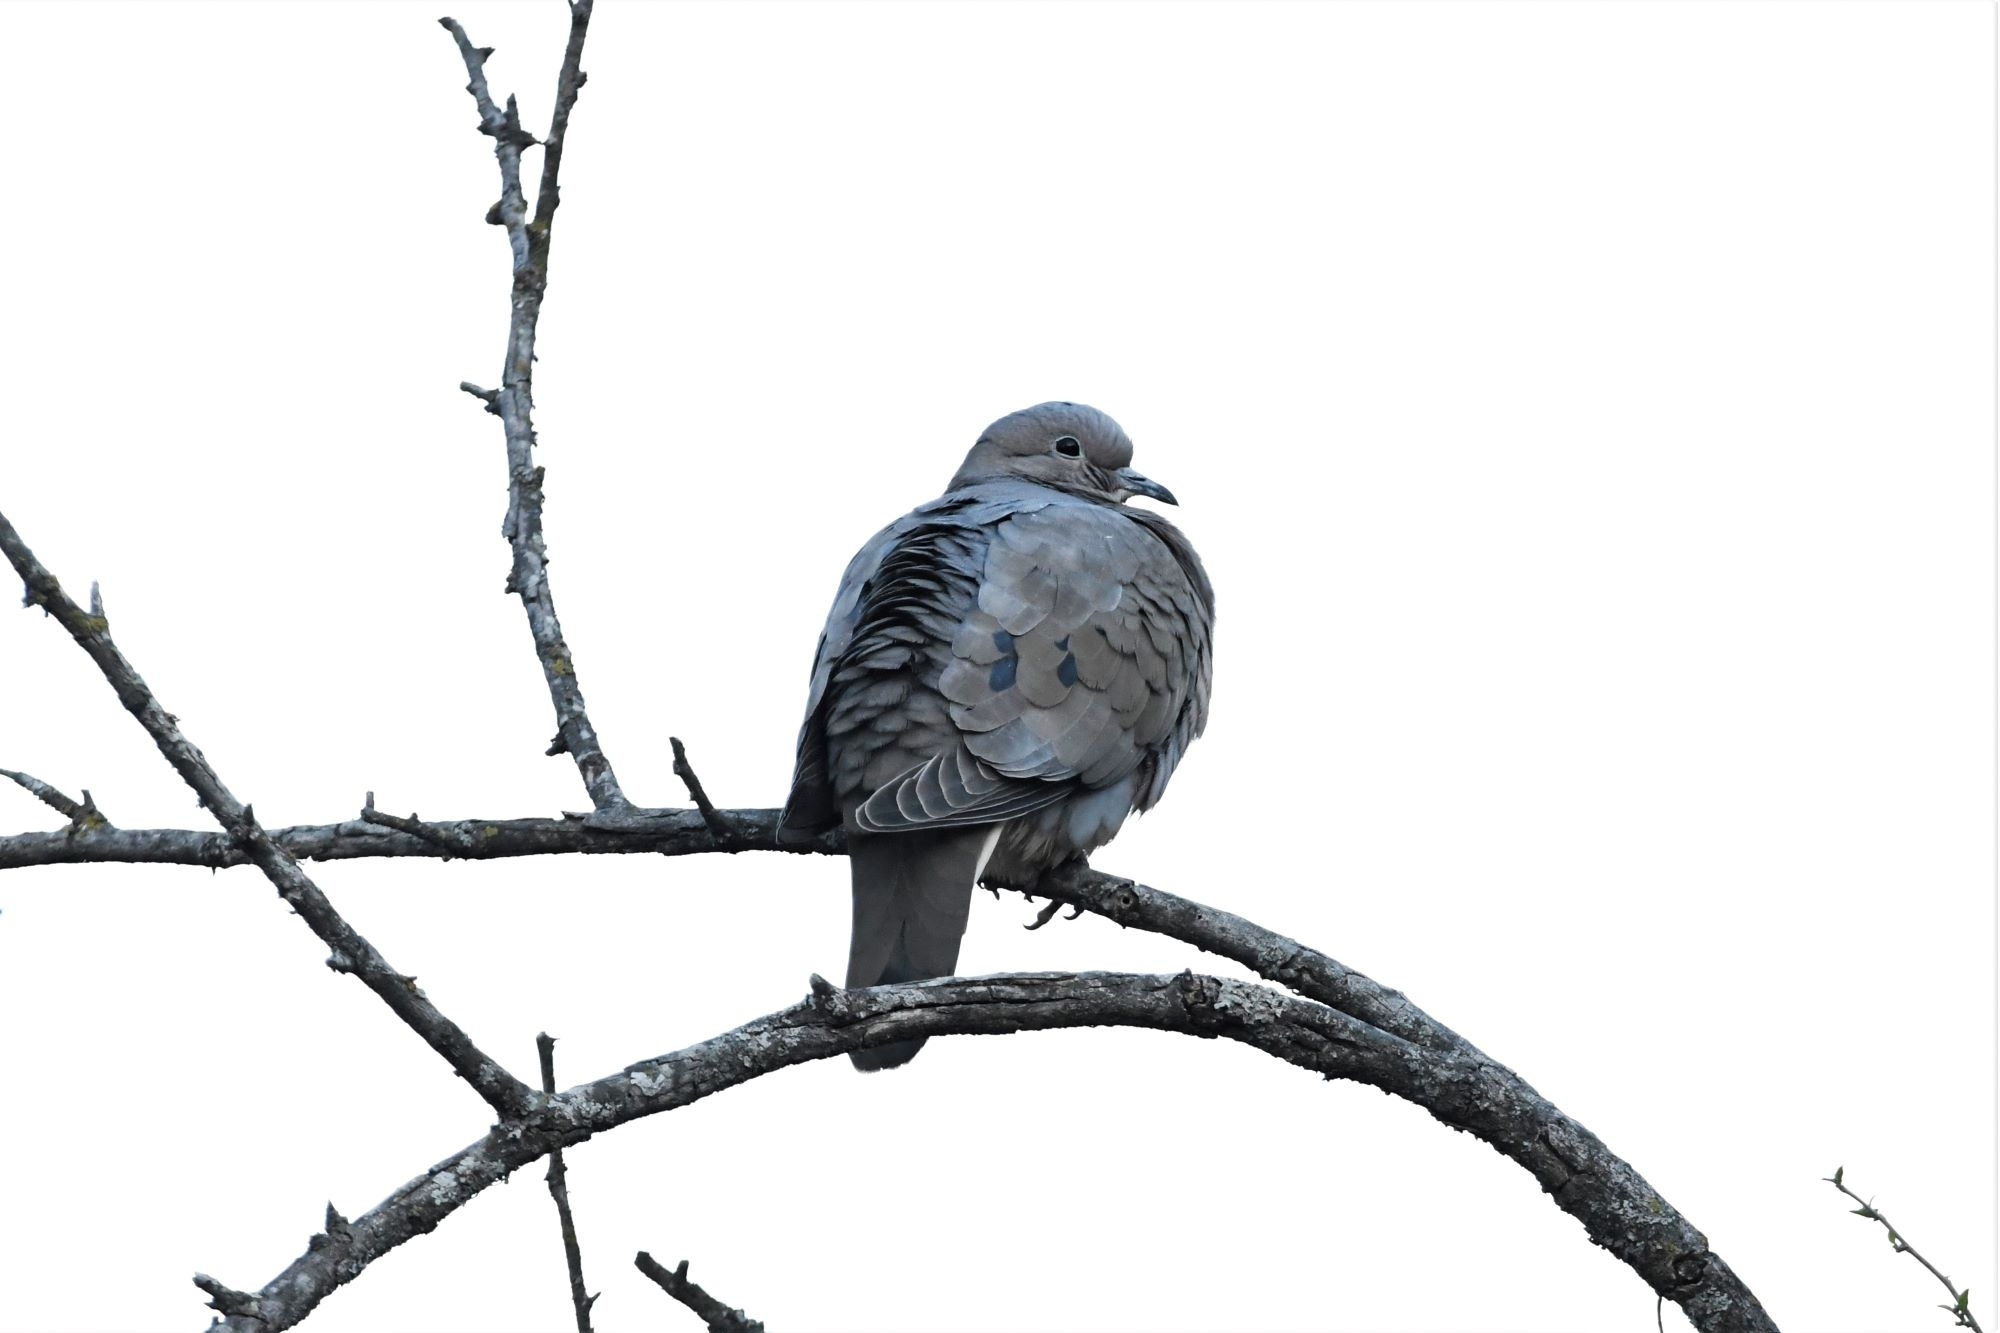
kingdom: Animalia
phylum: Chordata
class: Aves
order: Columbiformes
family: Columbidae
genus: Zenaida
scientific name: Zenaida auriculata
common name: Eared dove
